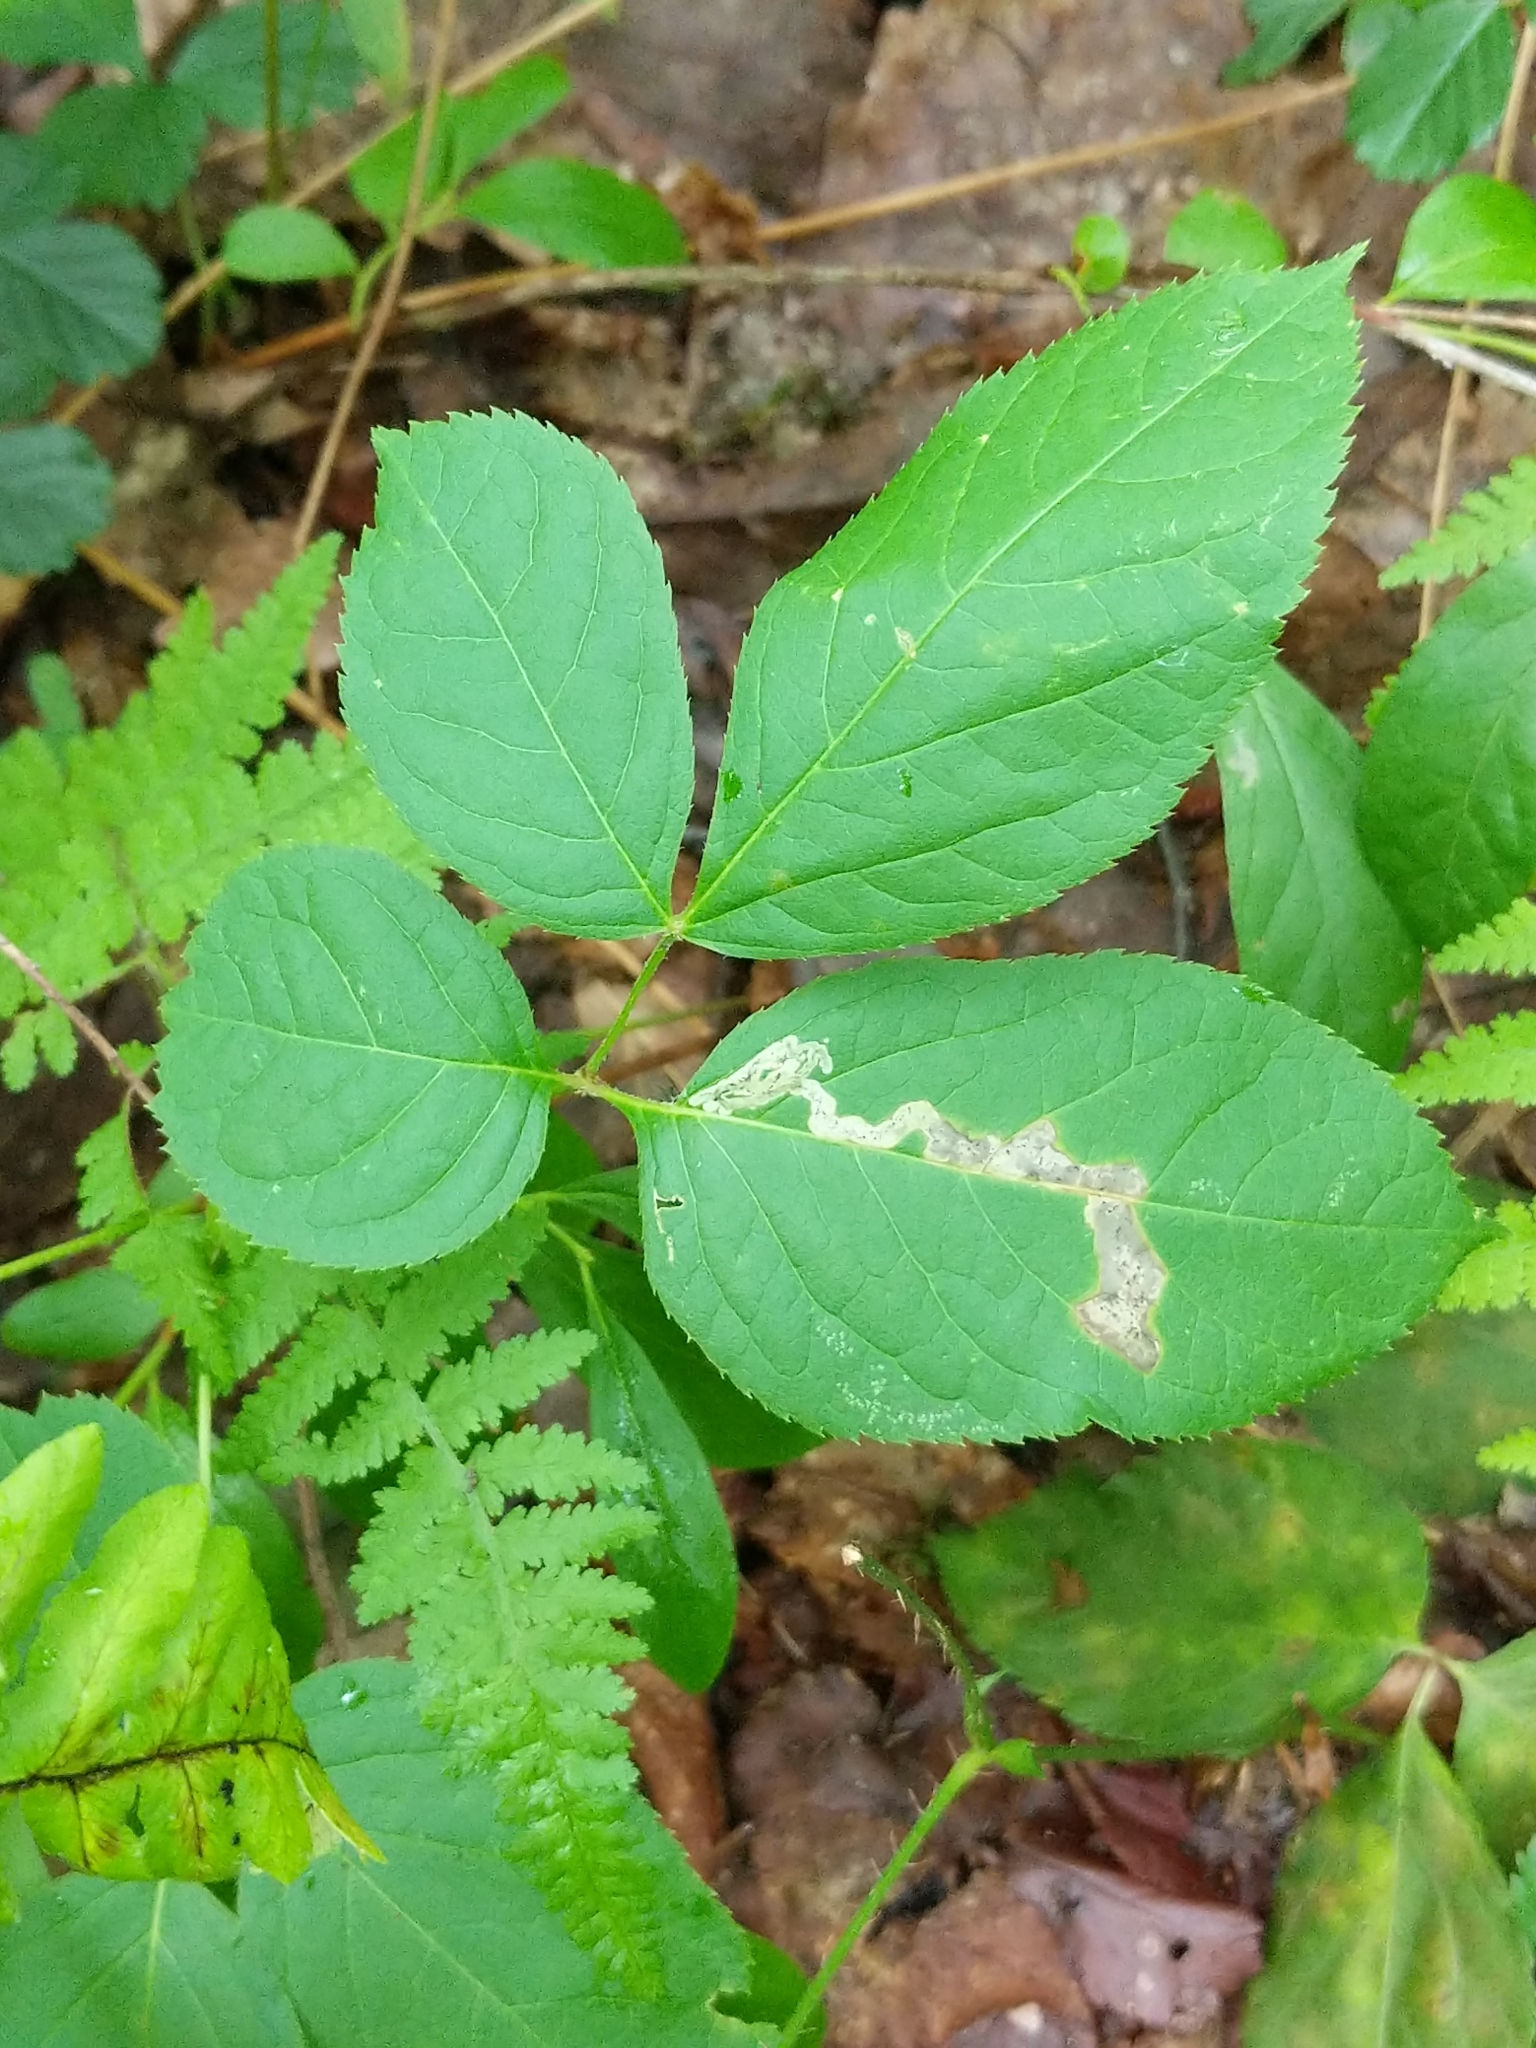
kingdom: Plantae
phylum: Tracheophyta
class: Magnoliopsida
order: Apiales
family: Araliaceae
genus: Aralia
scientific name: Aralia nudicaulis
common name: Wild sarsaparilla
